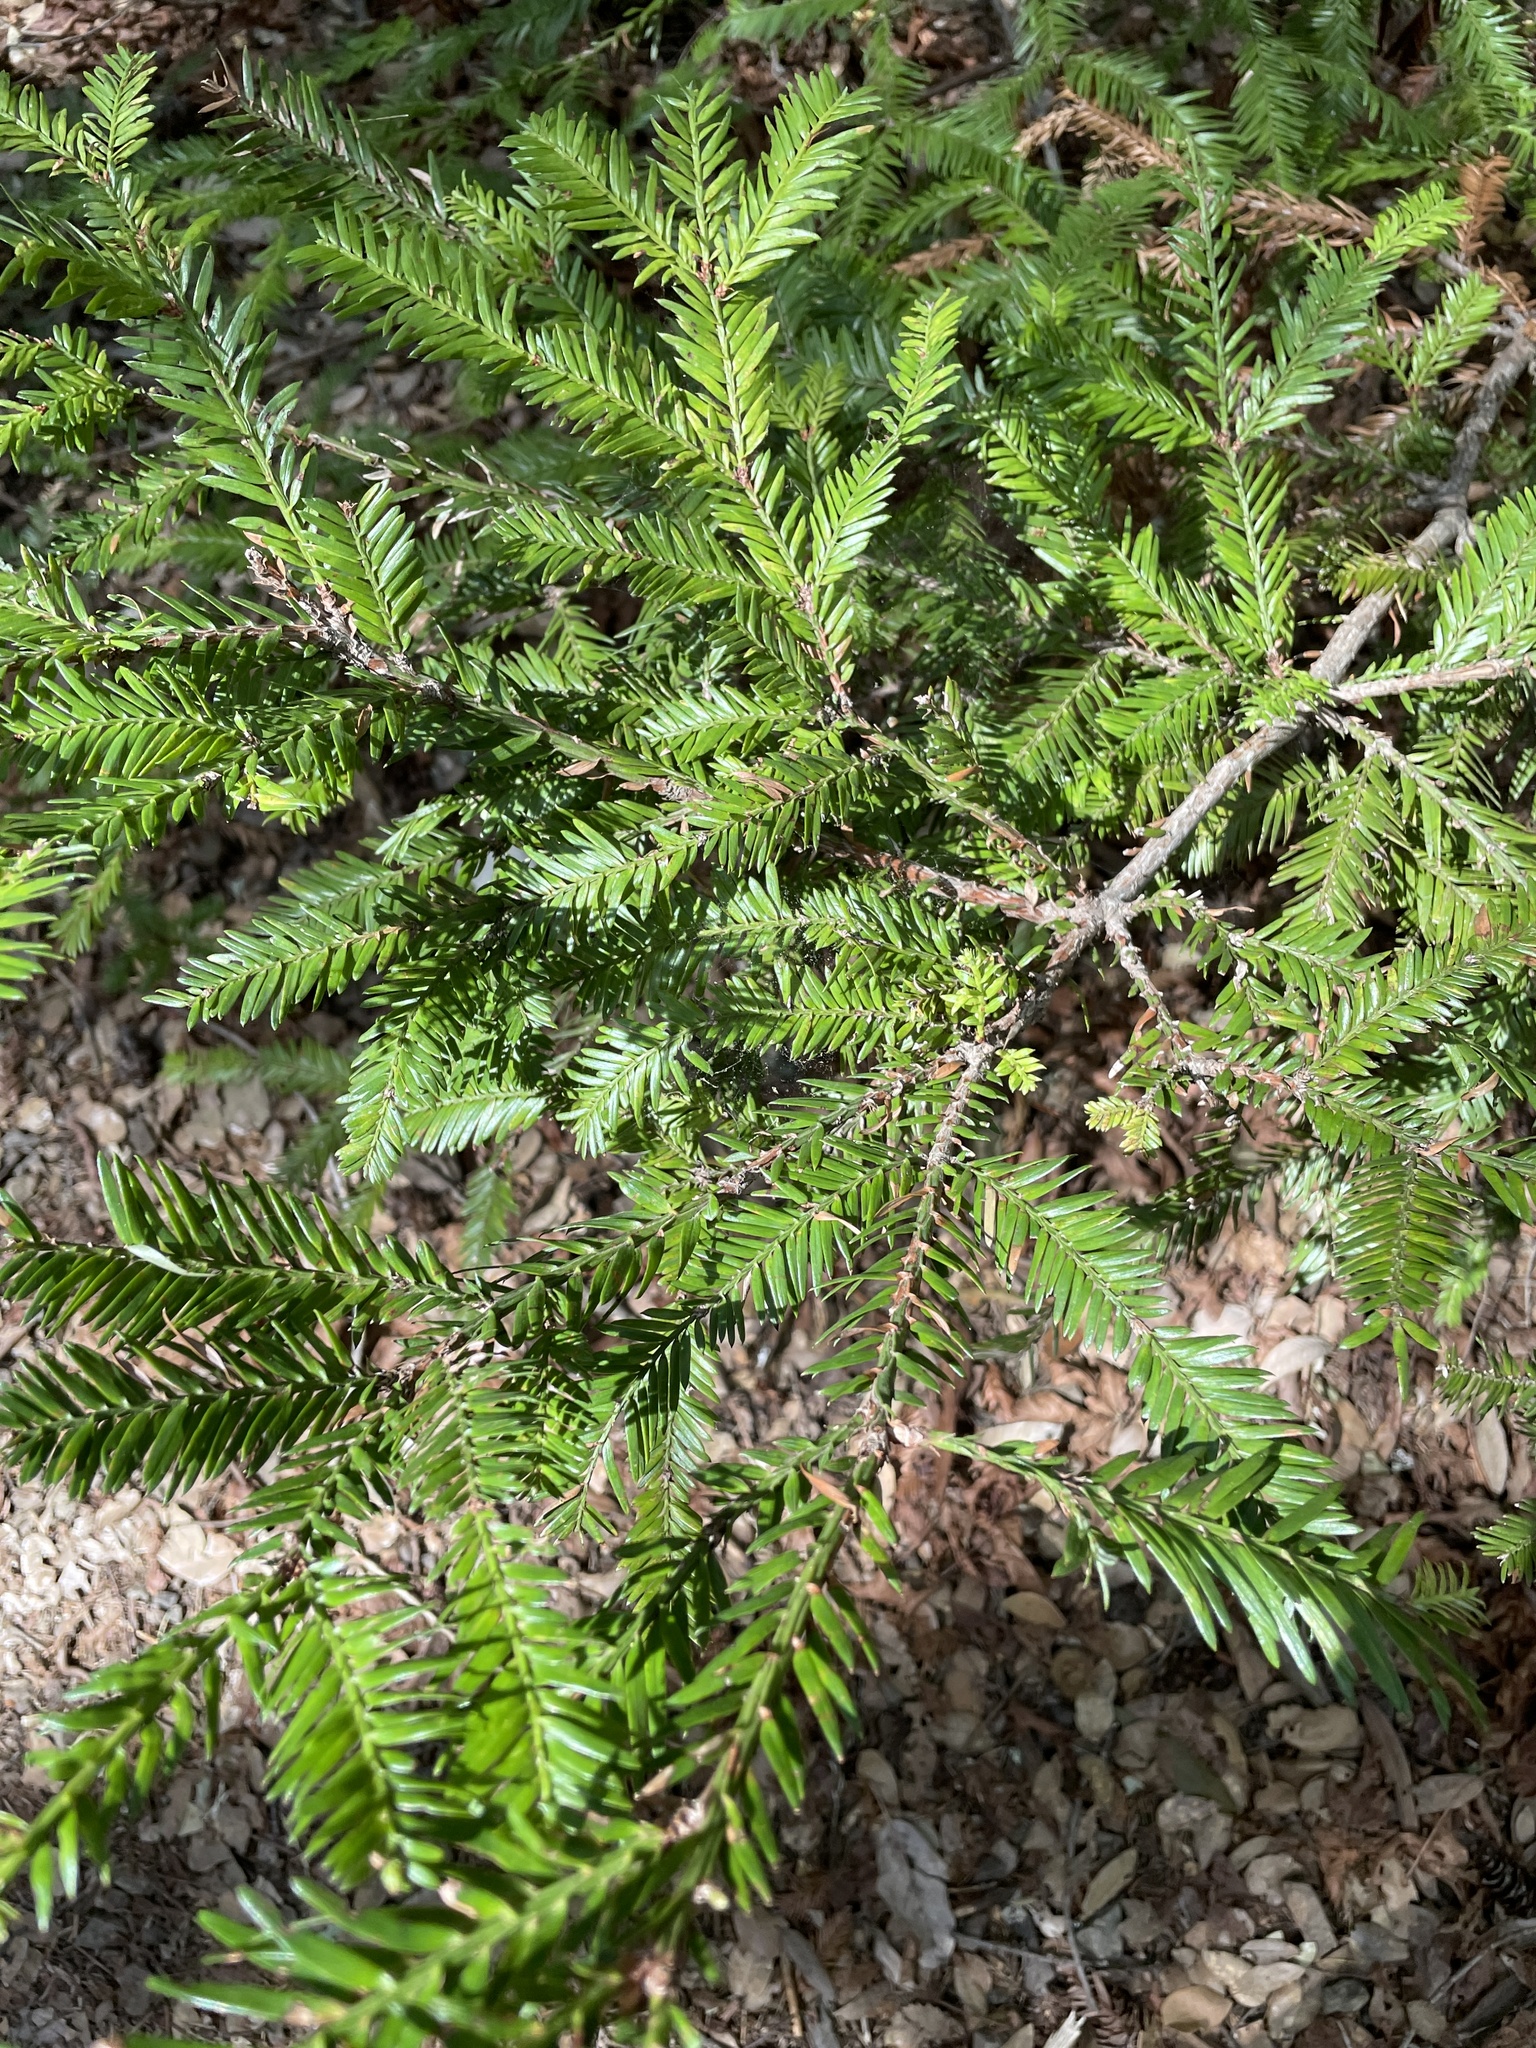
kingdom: Plantae
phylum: Tracheophyta
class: Pinopsida
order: Pinales
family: Cupressaceae
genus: Sequoia
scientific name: Sequoia sempervirens
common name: Coast redwood
